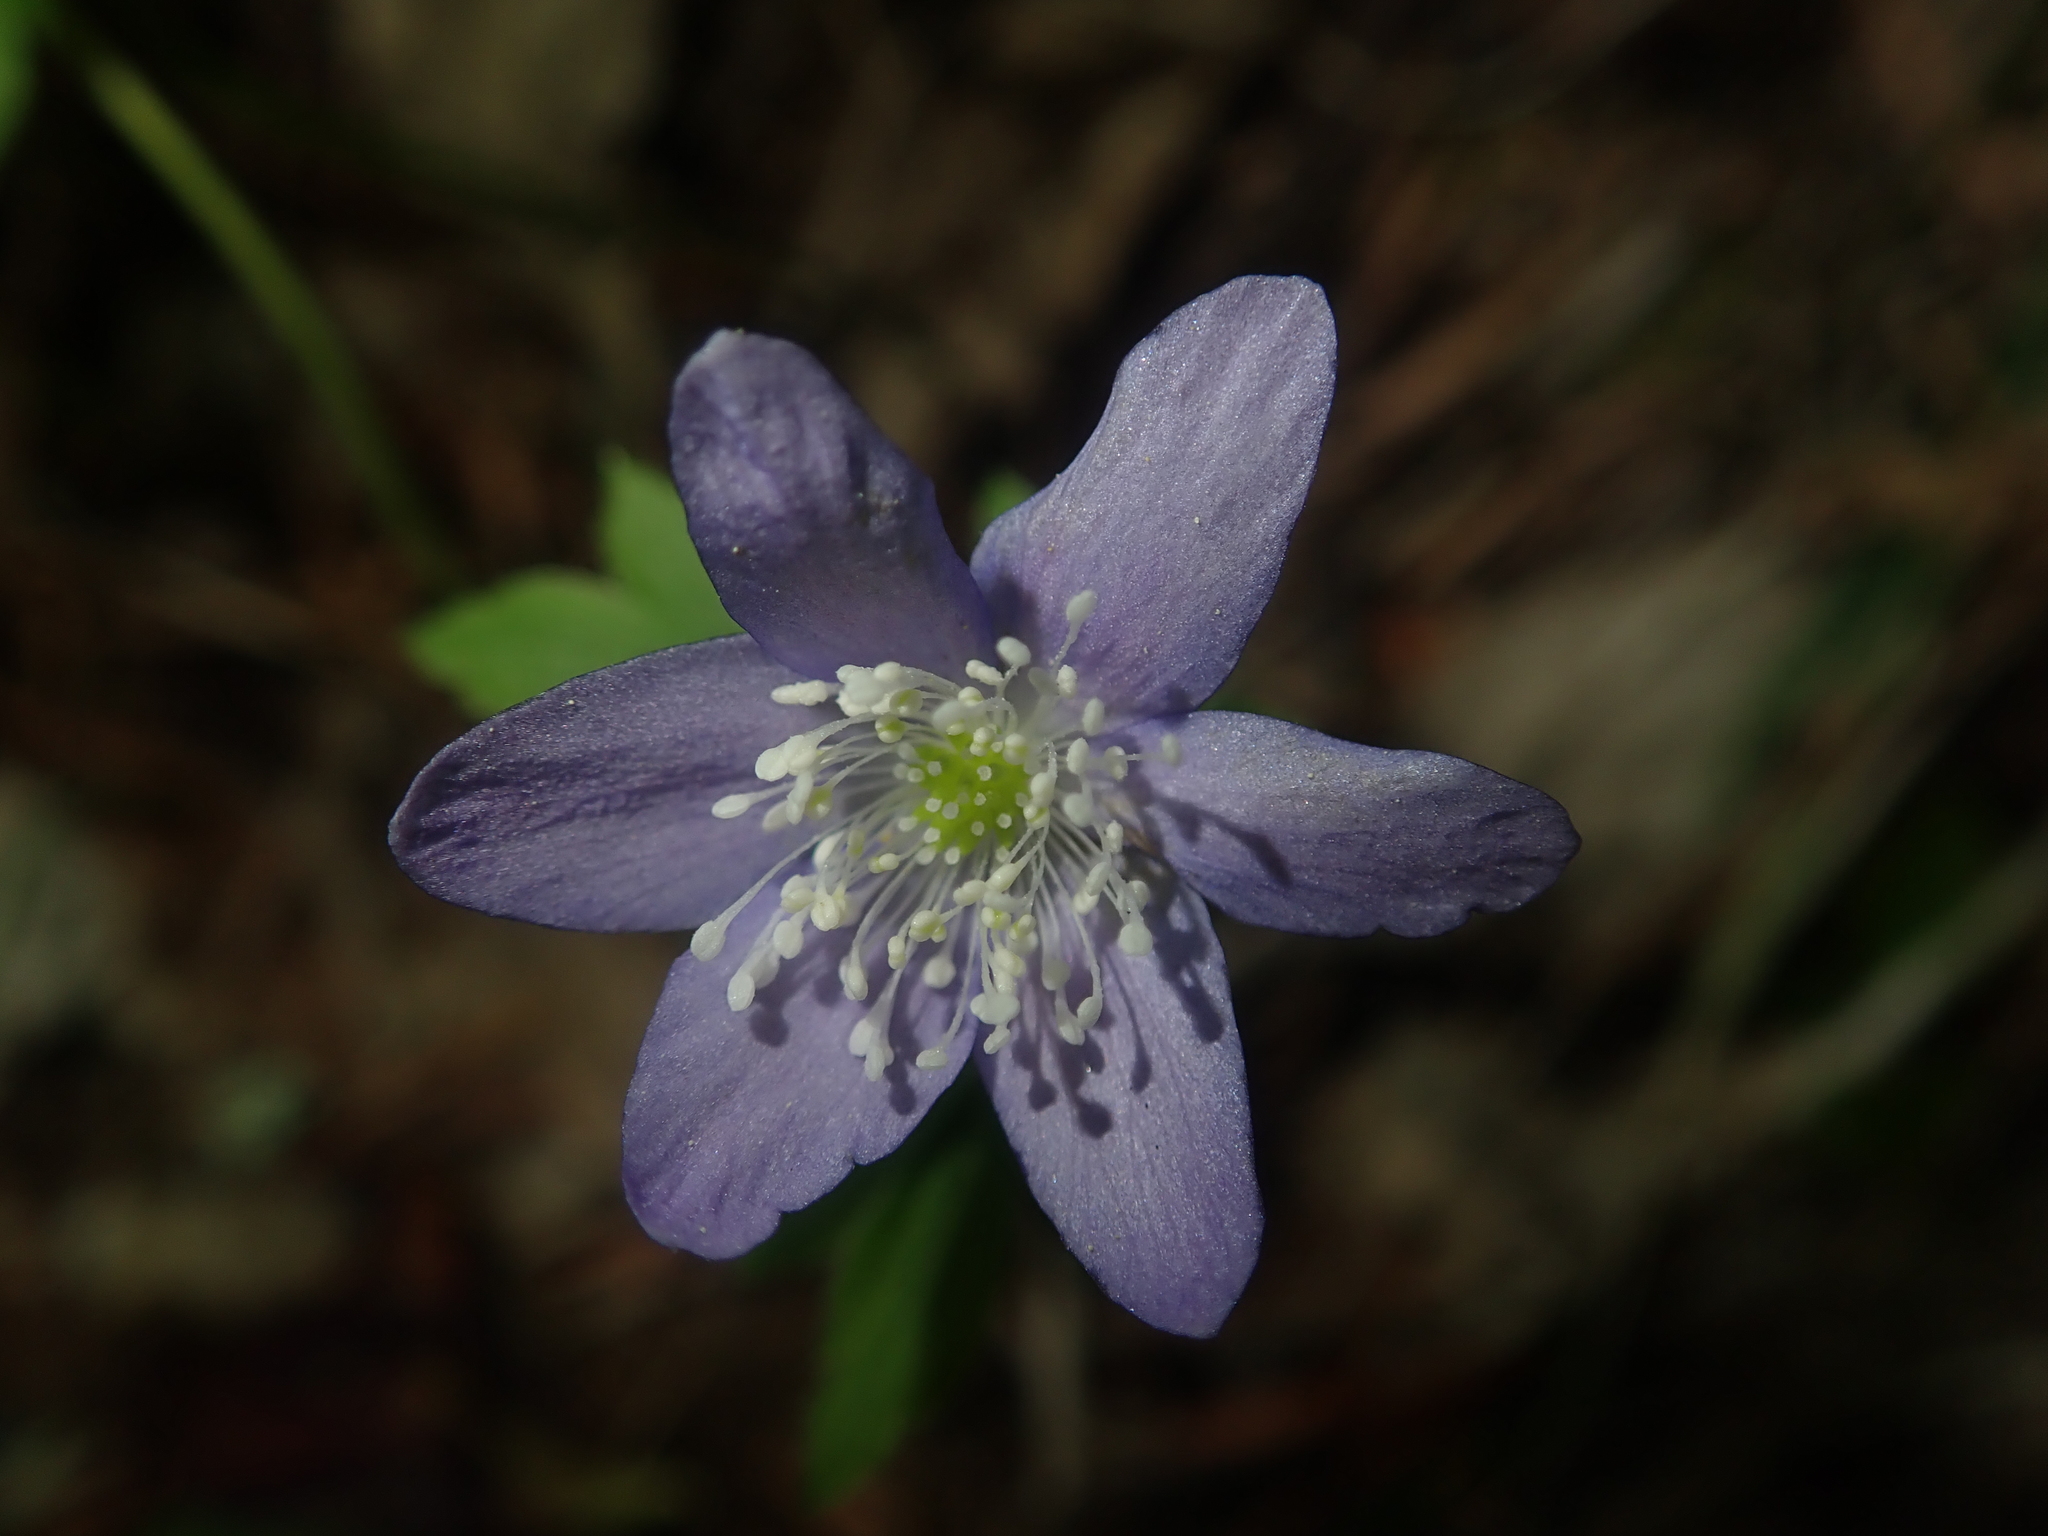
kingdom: Plantae
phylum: Tracheophyta
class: Magnoliopsida
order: Ranunculales
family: Ranunculaceae
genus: Anemone
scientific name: Anemone oregana
